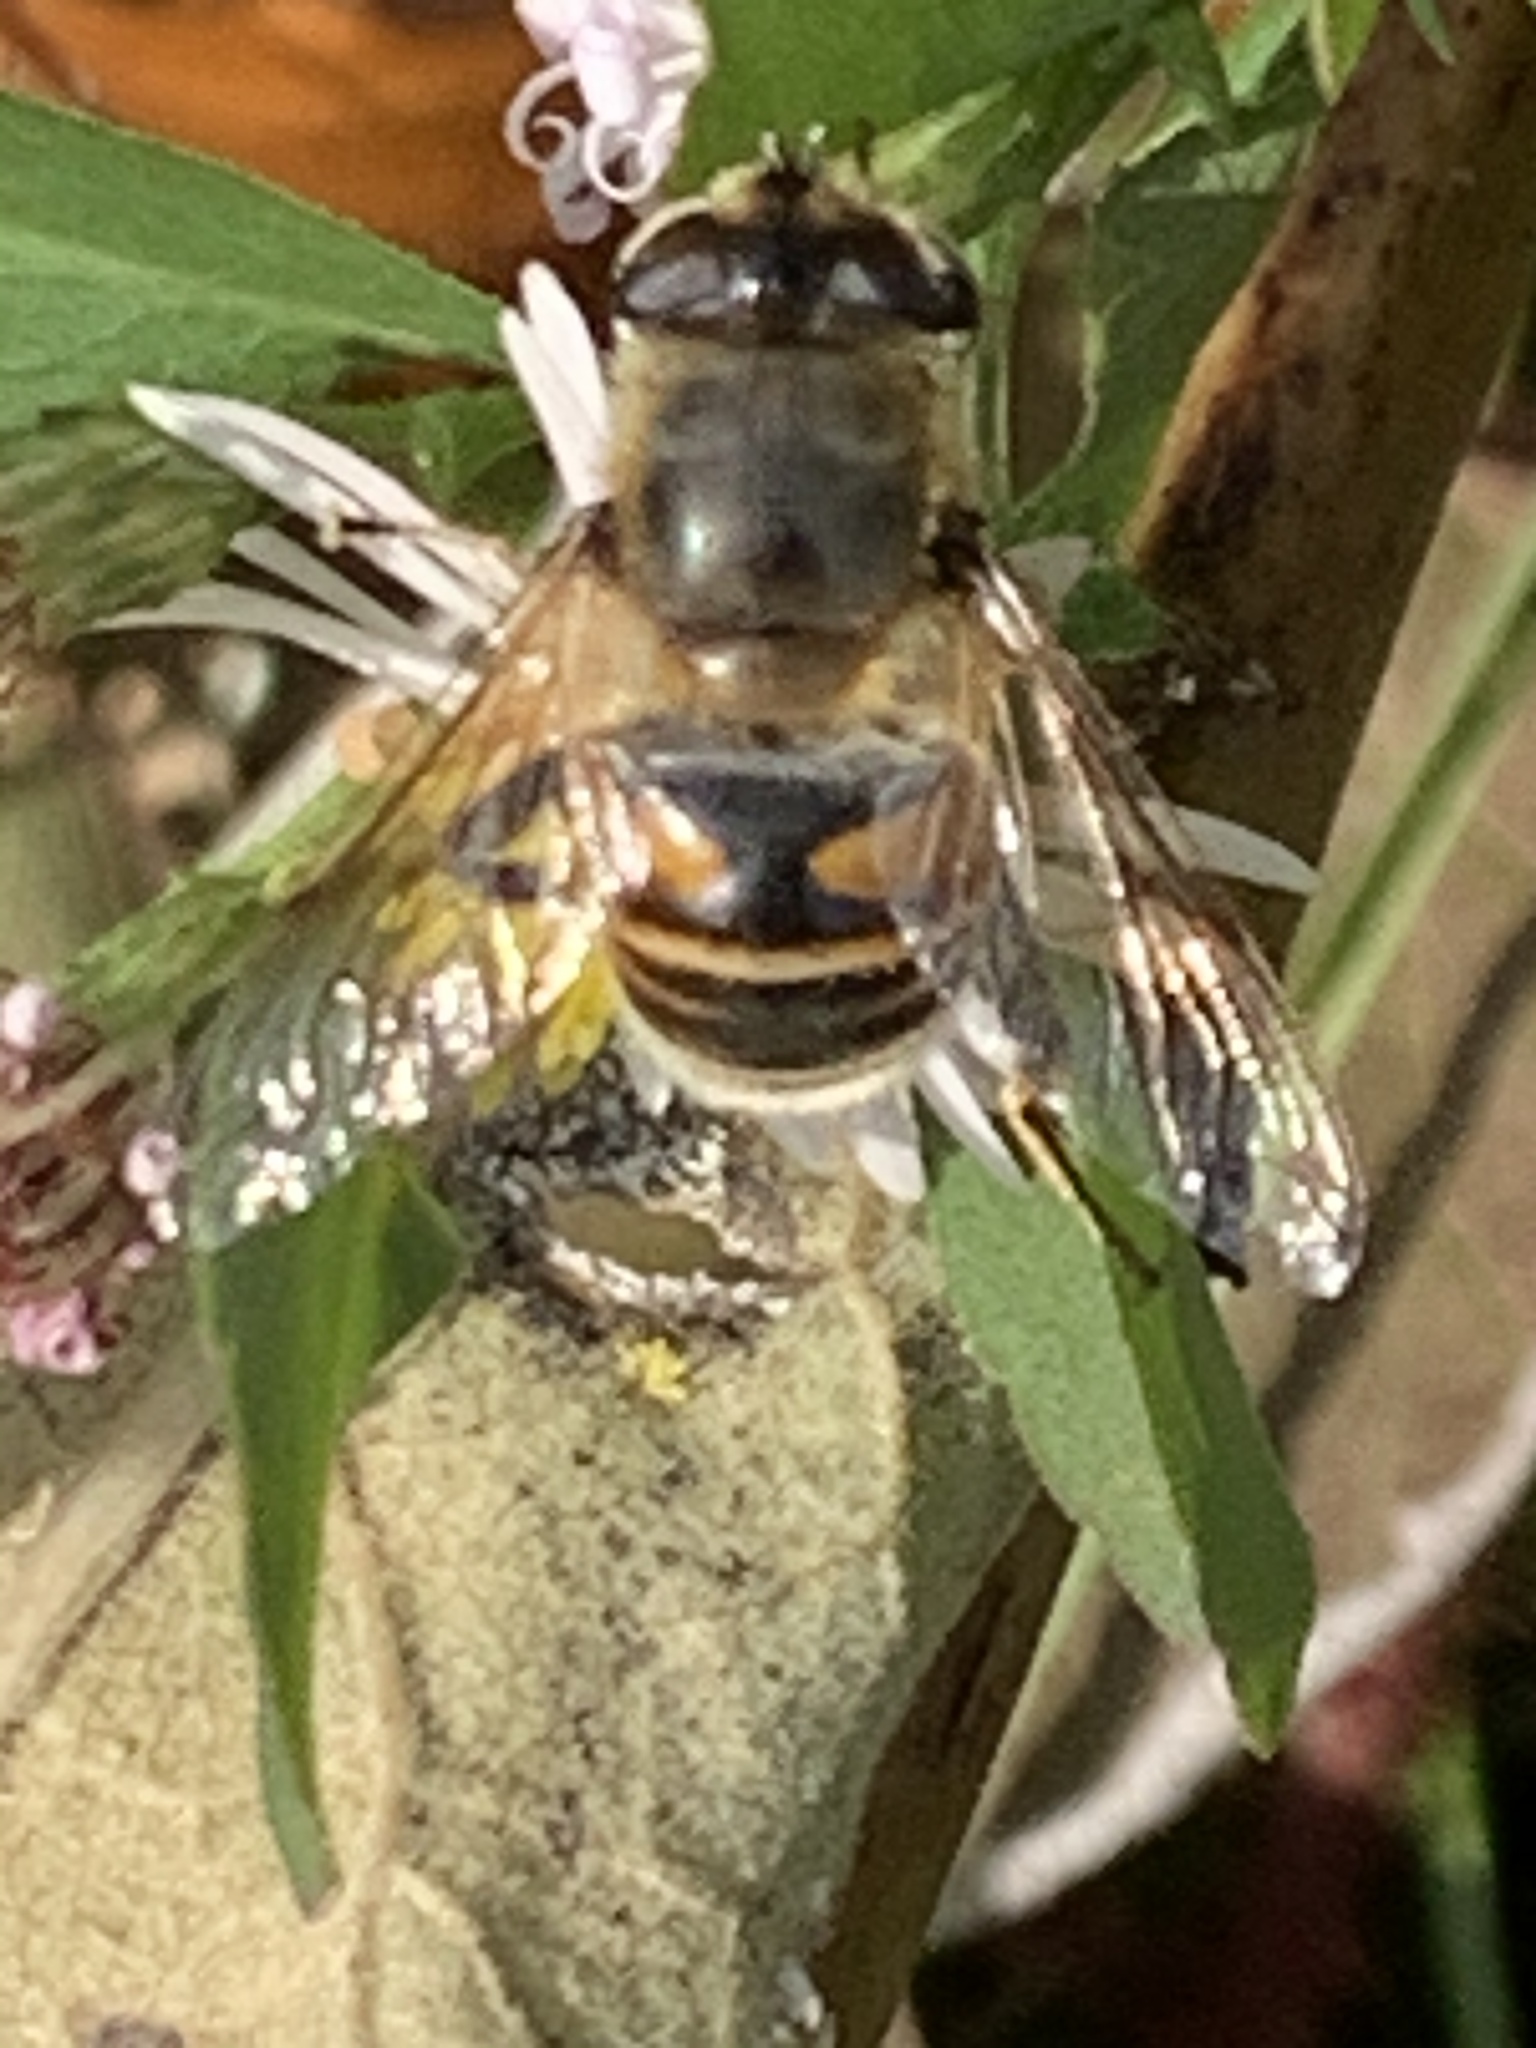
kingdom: Animalia
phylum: Arthropoda
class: Insecta
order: Diptera
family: Syrphidae
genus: Eristalis
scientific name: Eristalis tenax
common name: Drone fly
